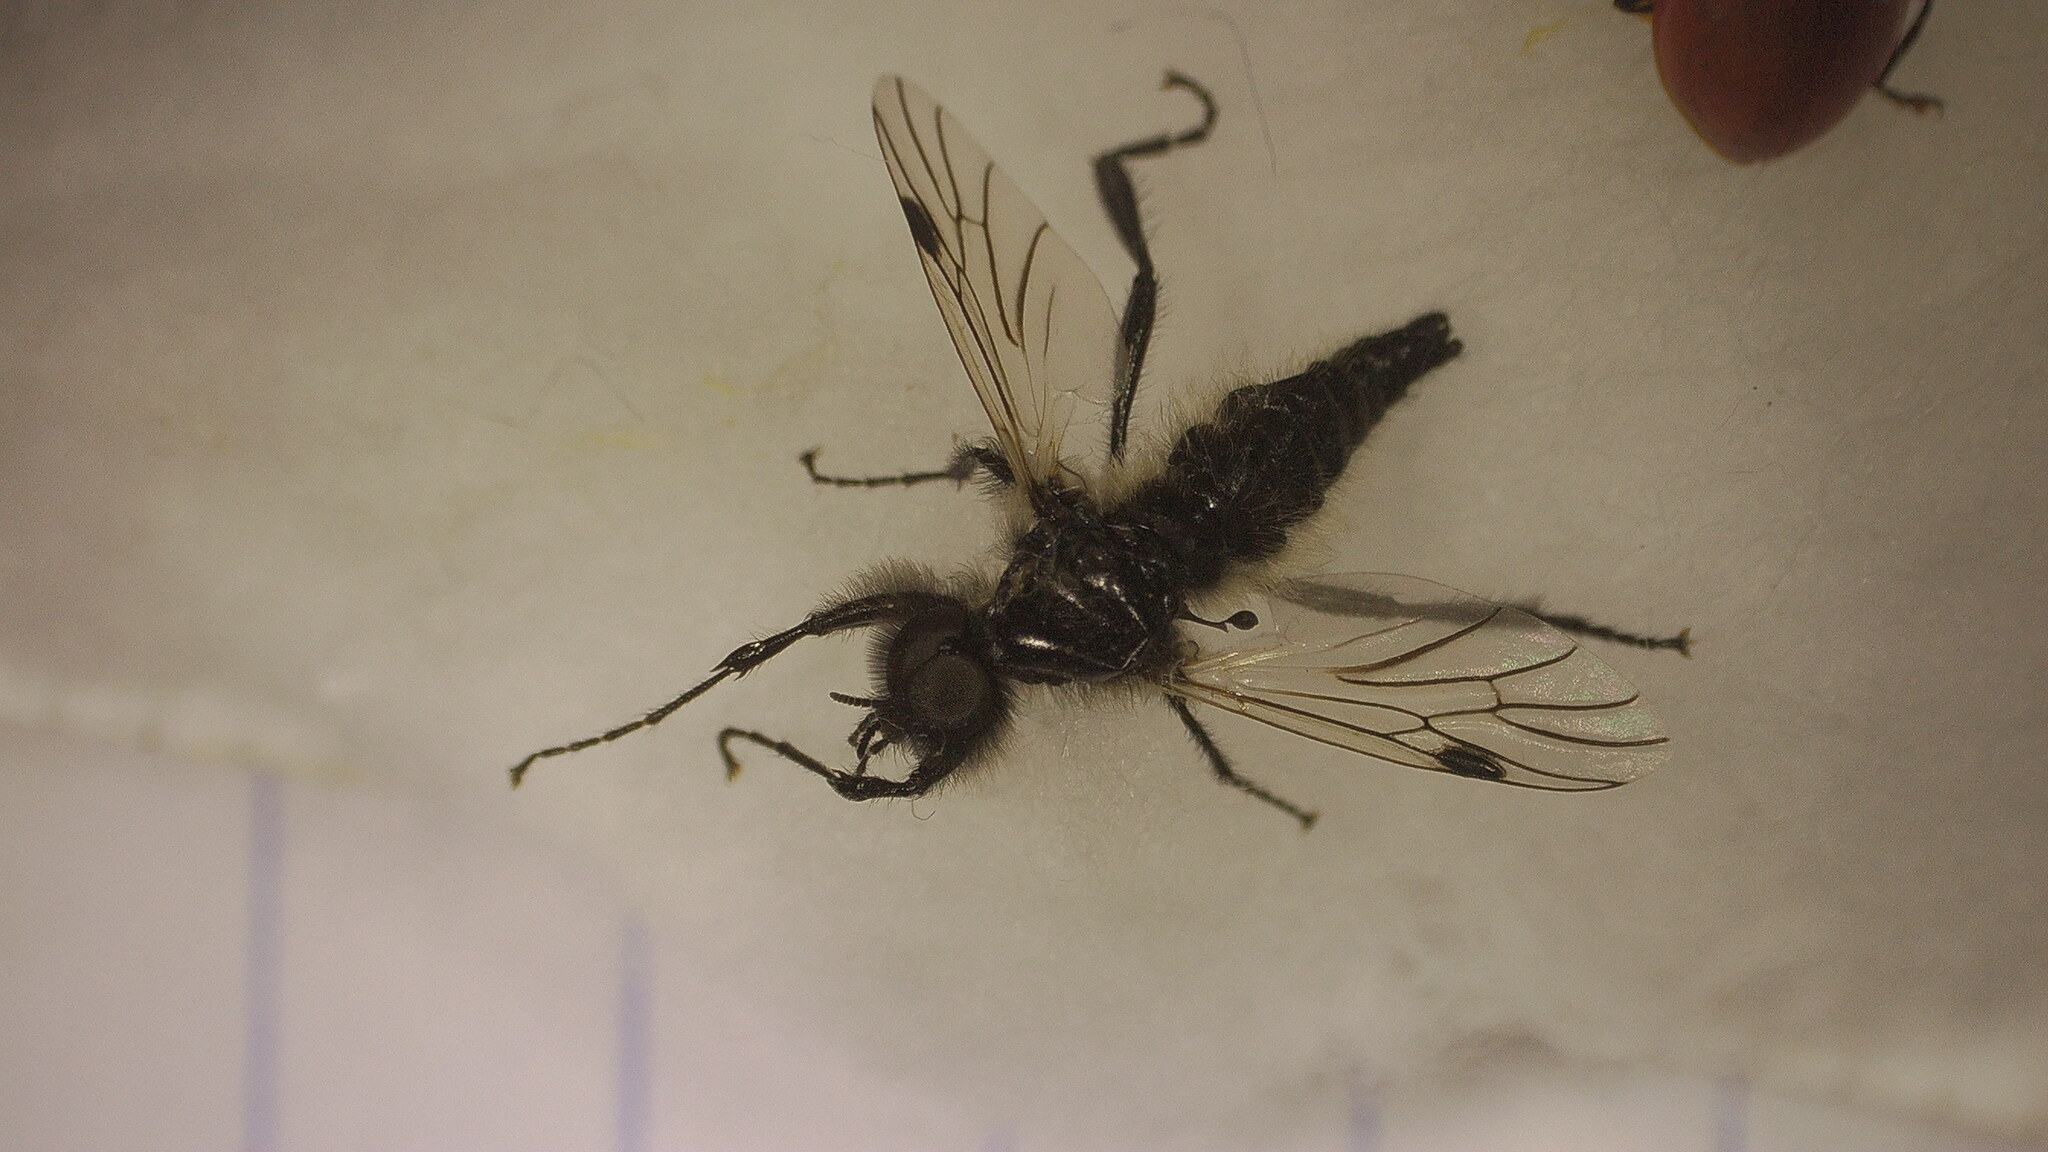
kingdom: Animalia
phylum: Arthropoda
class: Insecta
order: Diptera
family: Bibionidae
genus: Bibio
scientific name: Bibio albipennis
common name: White-winged march fly
